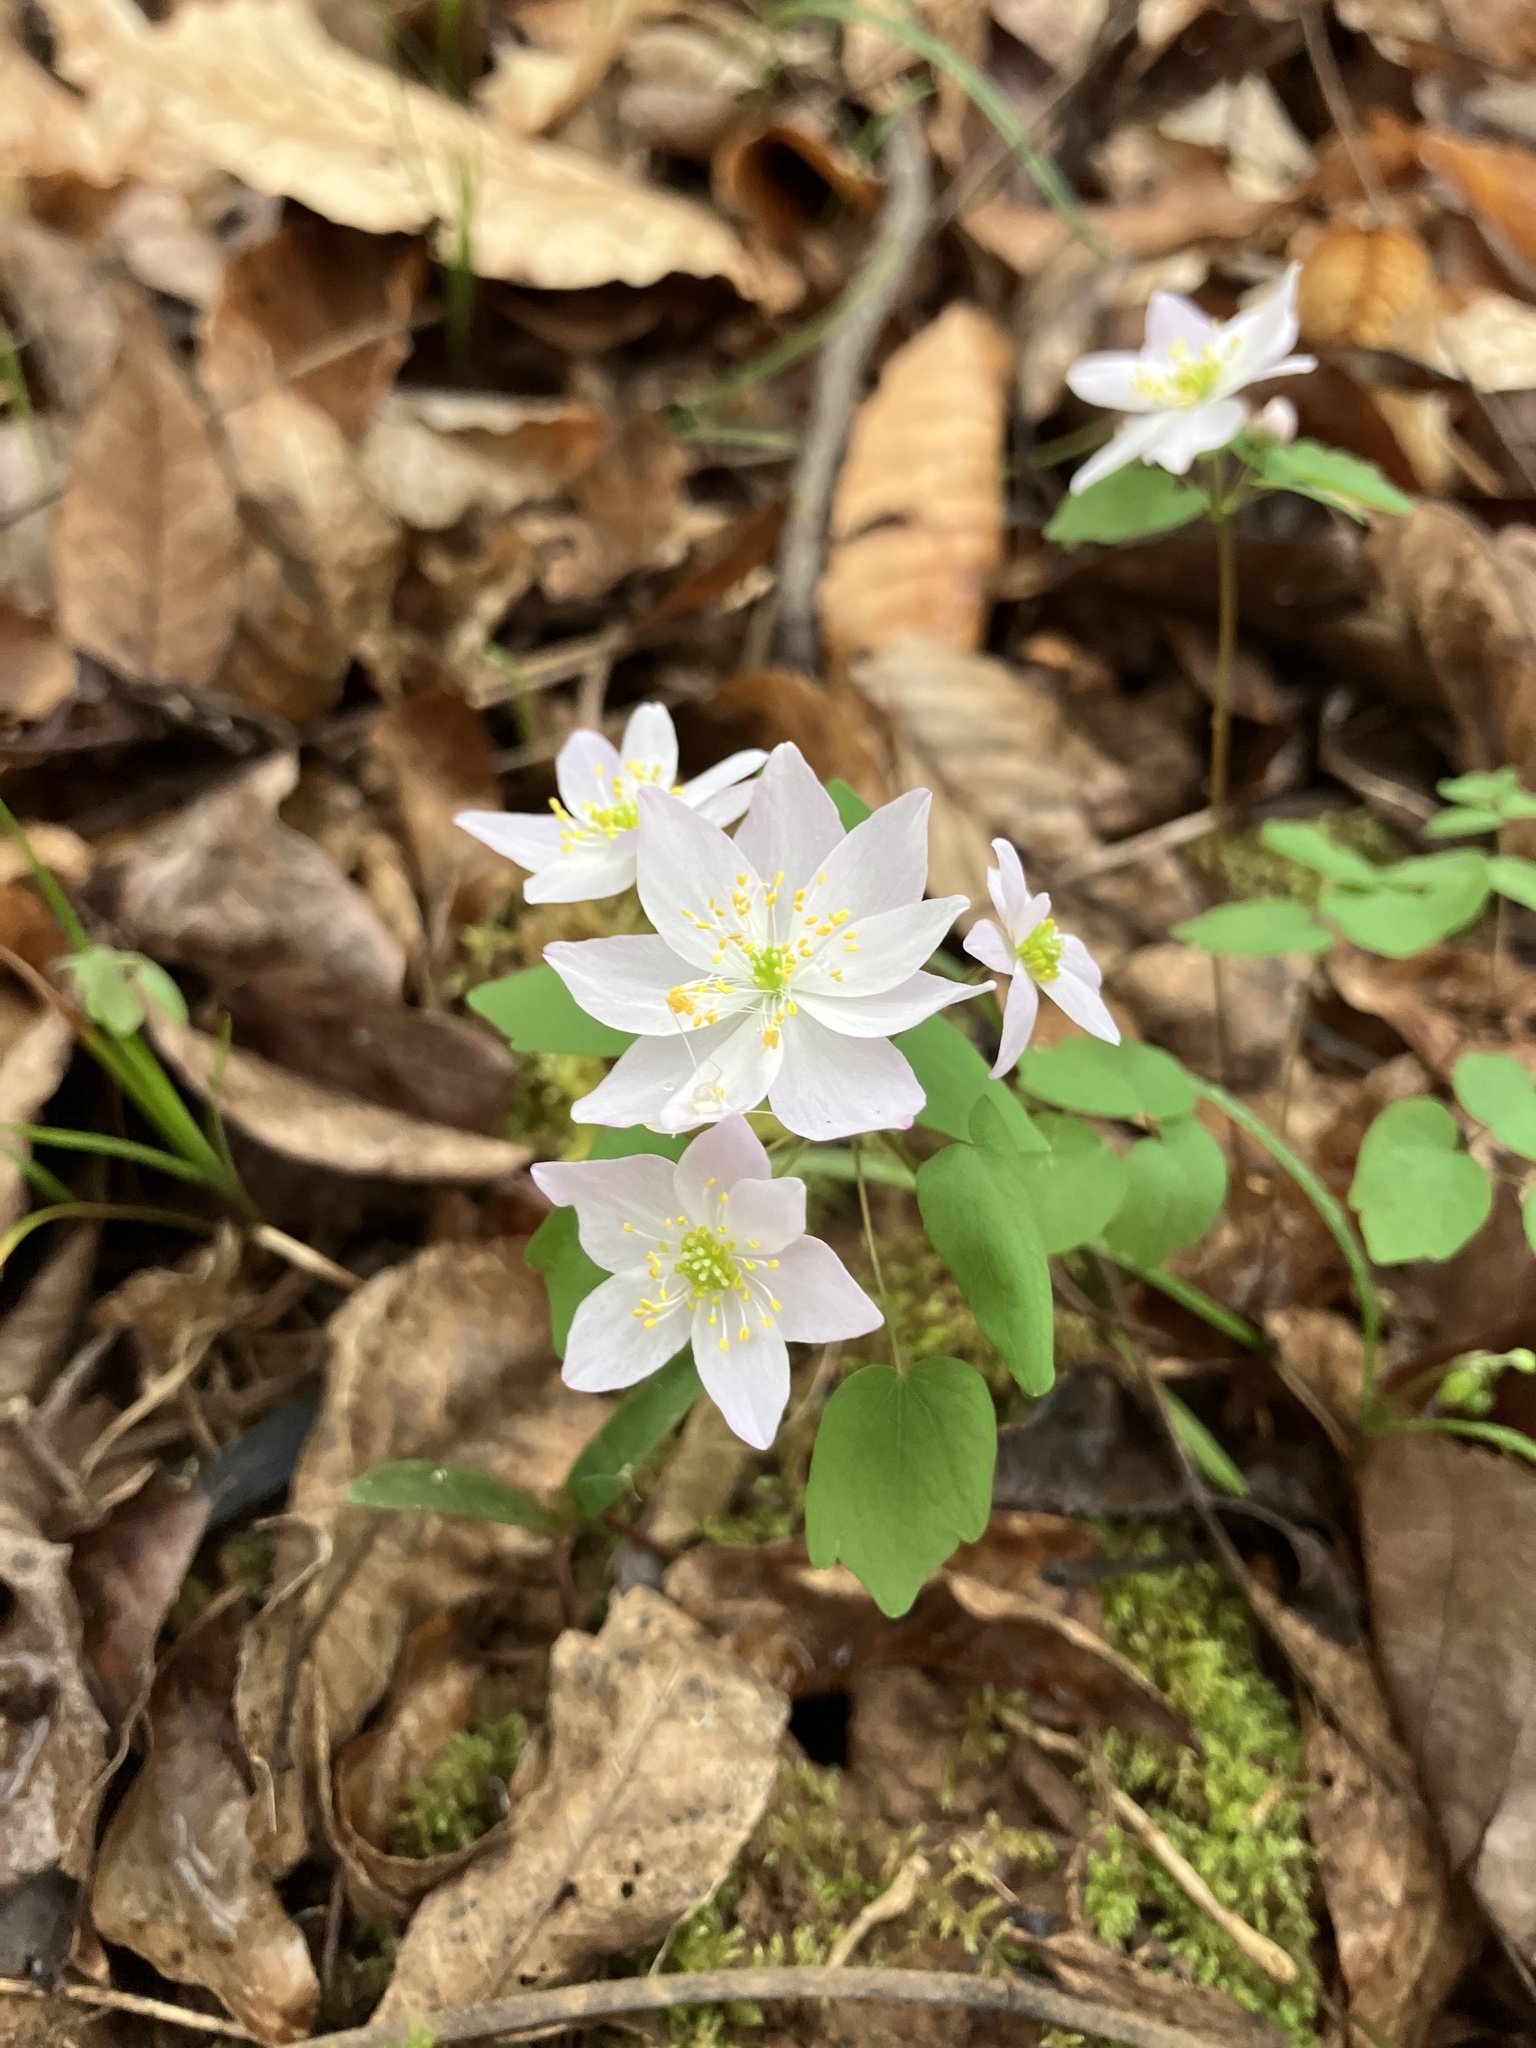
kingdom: Plantae
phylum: Tracheophyta
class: Magnoliopsida
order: Ranunculales
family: Ranunculaceae
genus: Thalictrum
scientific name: Thalictrum thalictroides
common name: Rue-anemone
